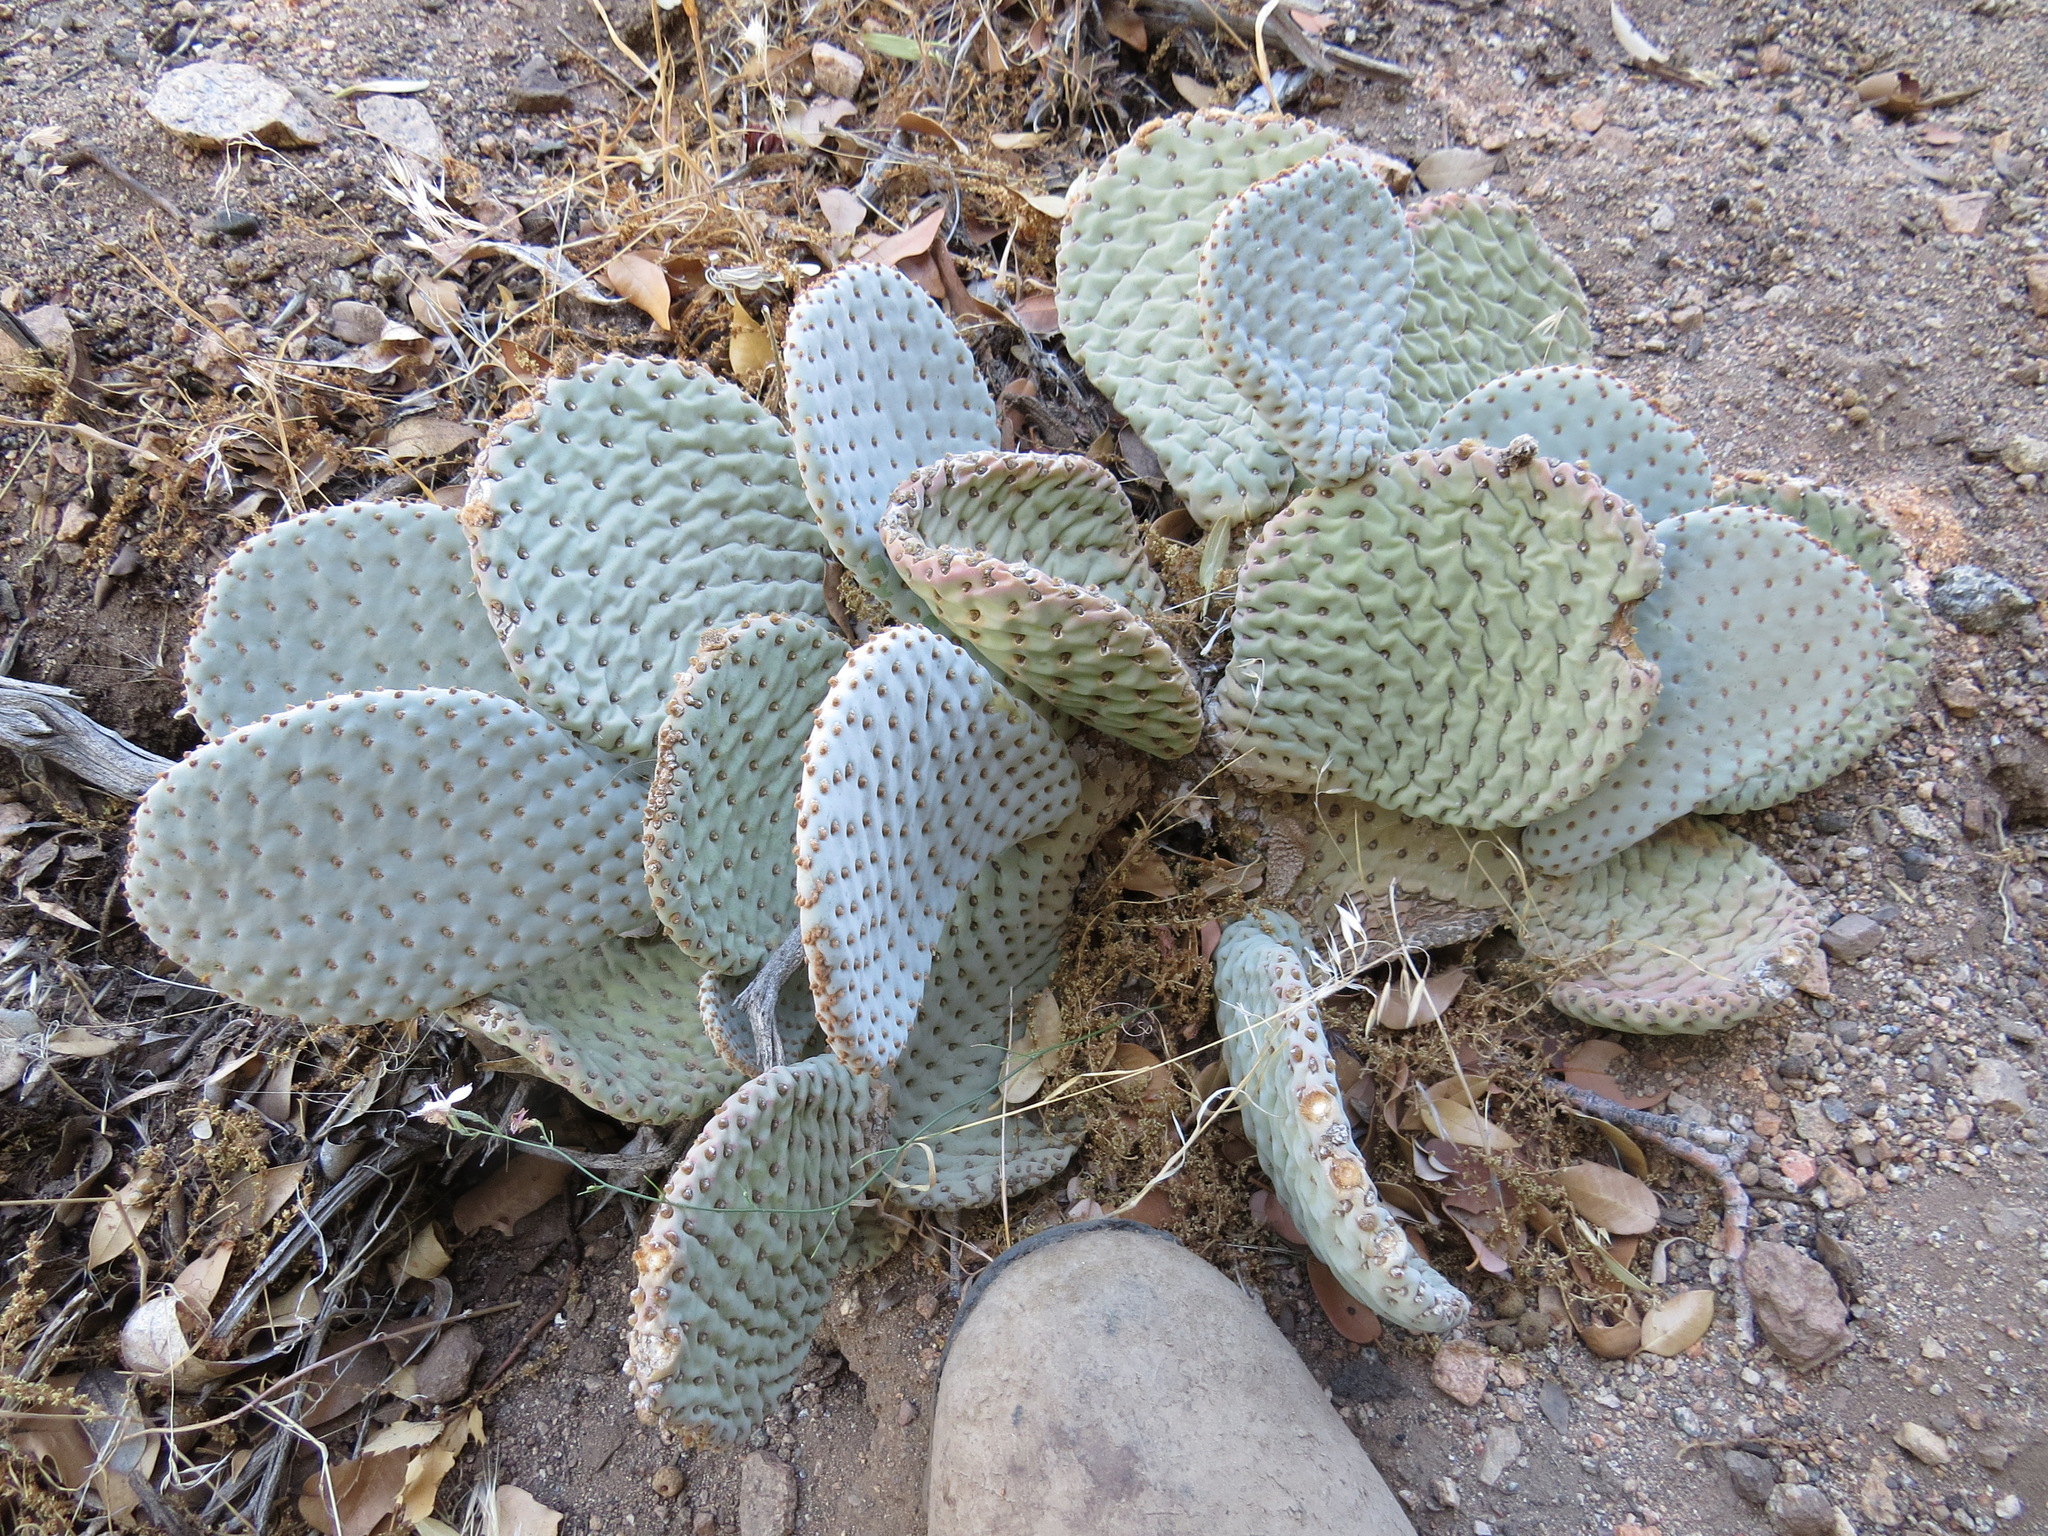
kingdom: Plantae
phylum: Tracheophyta
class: Magnoliopsida
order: Caryophyllales
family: Cactaceae
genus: Opuntia
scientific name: Opuntia basilaris
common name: Beavertail prickly-pear
